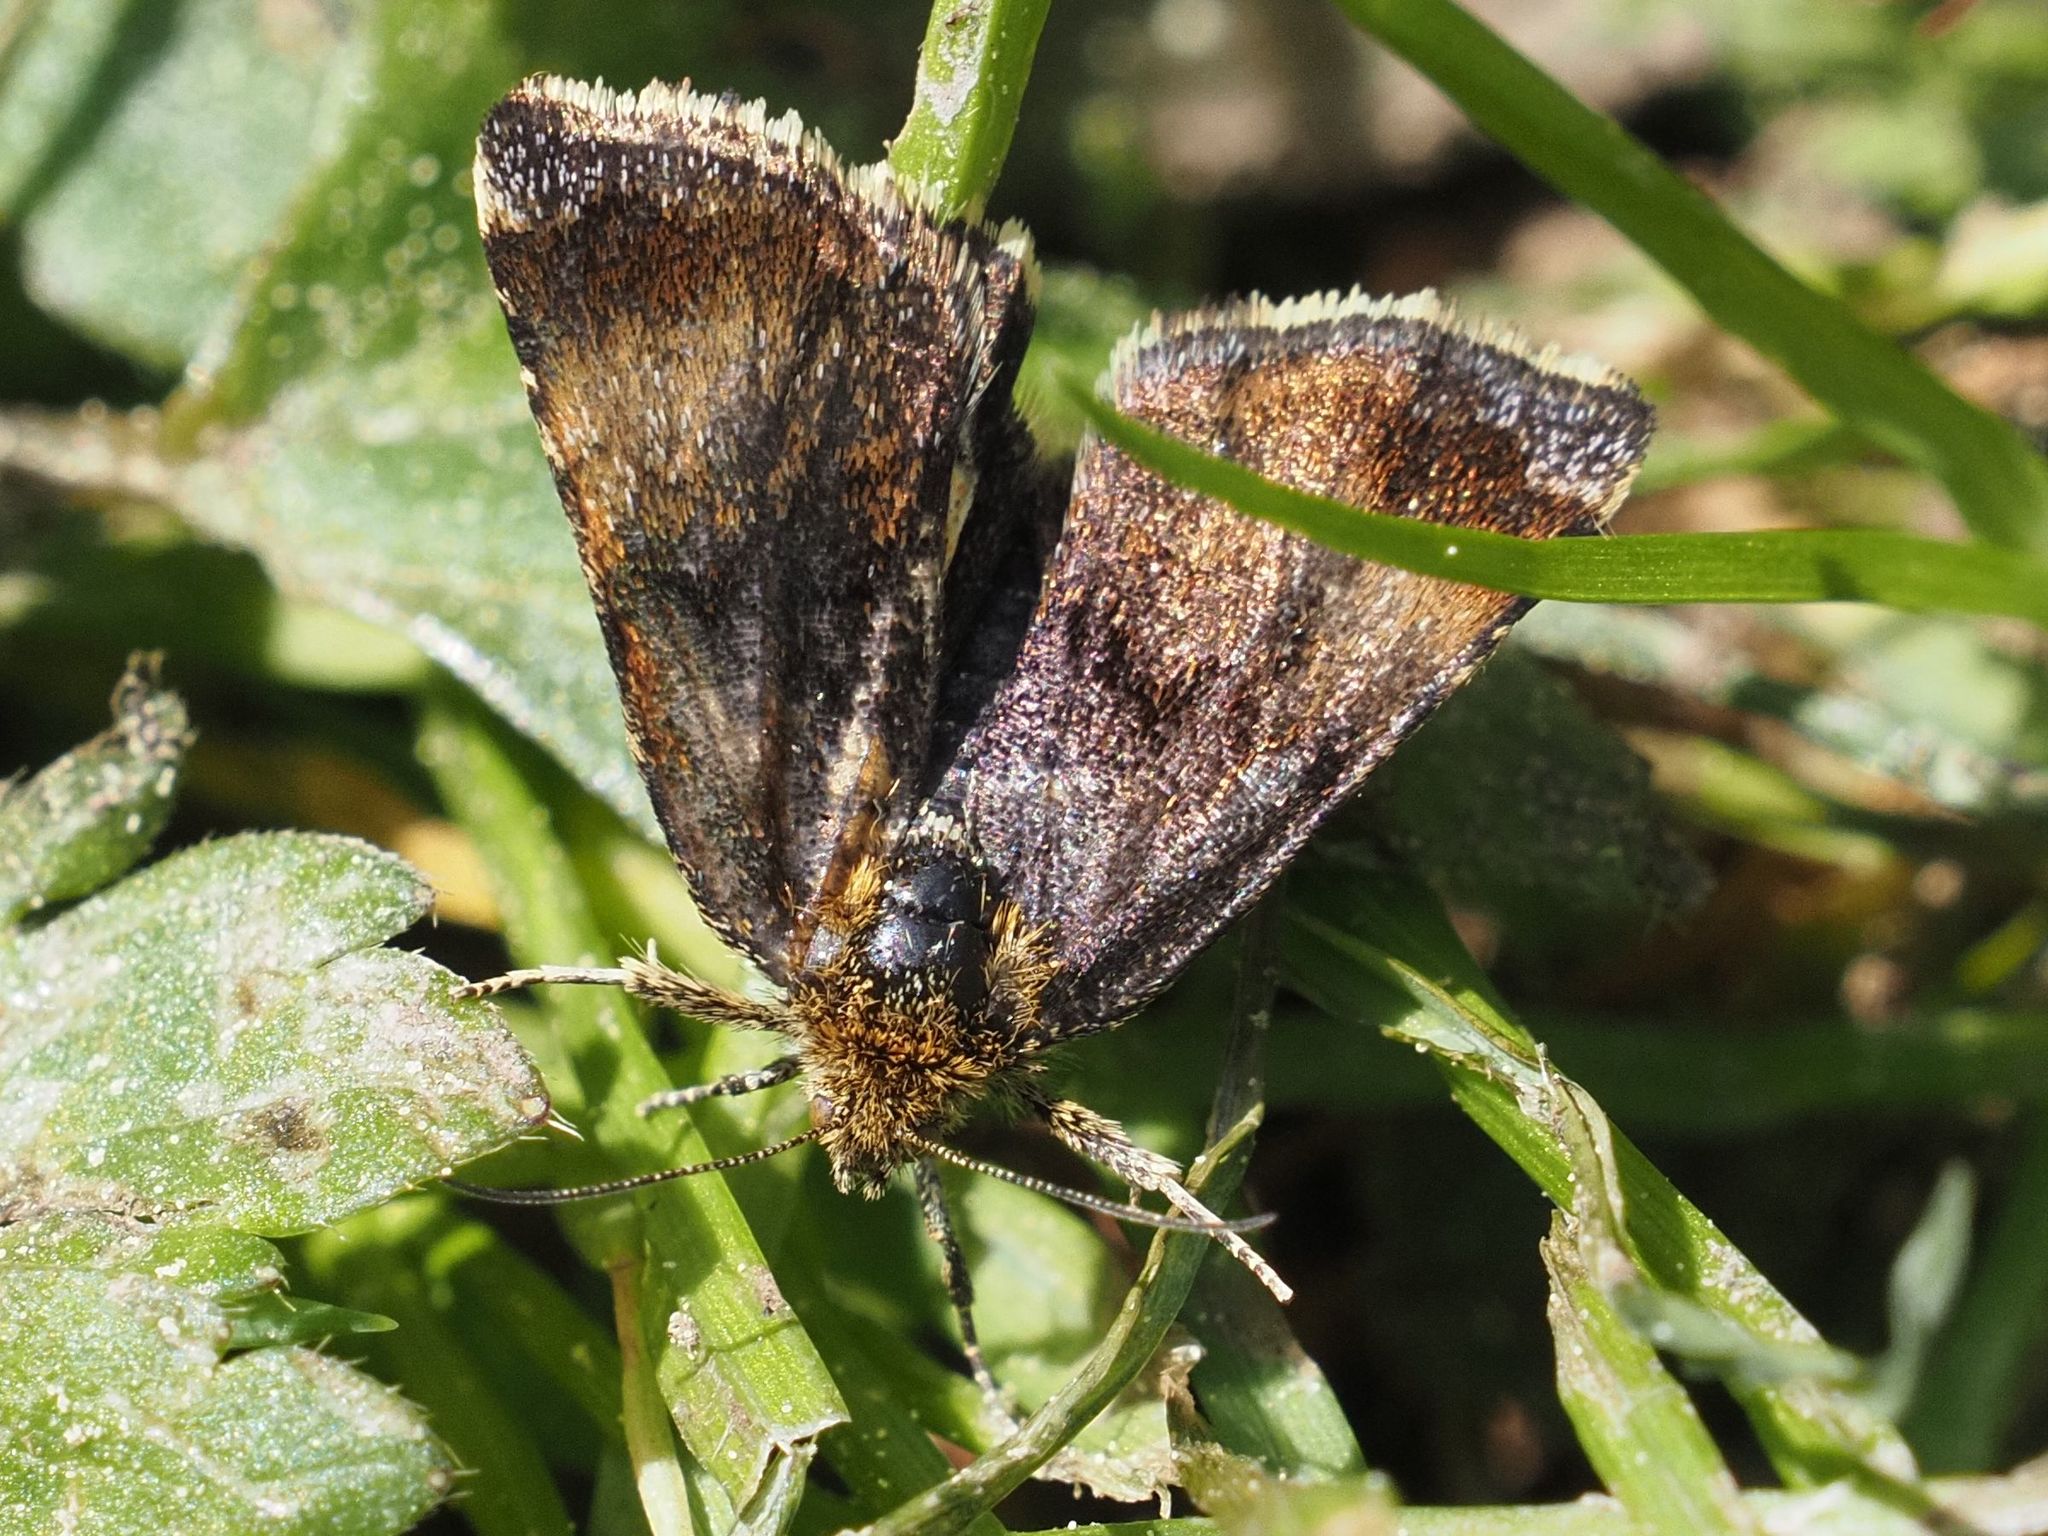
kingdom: Animalia
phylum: Arthropoda
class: Insecta
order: Lepidoptera
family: Noctuidae
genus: Panemeria
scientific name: Panemeria tenebrata
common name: Small yellow underwing
